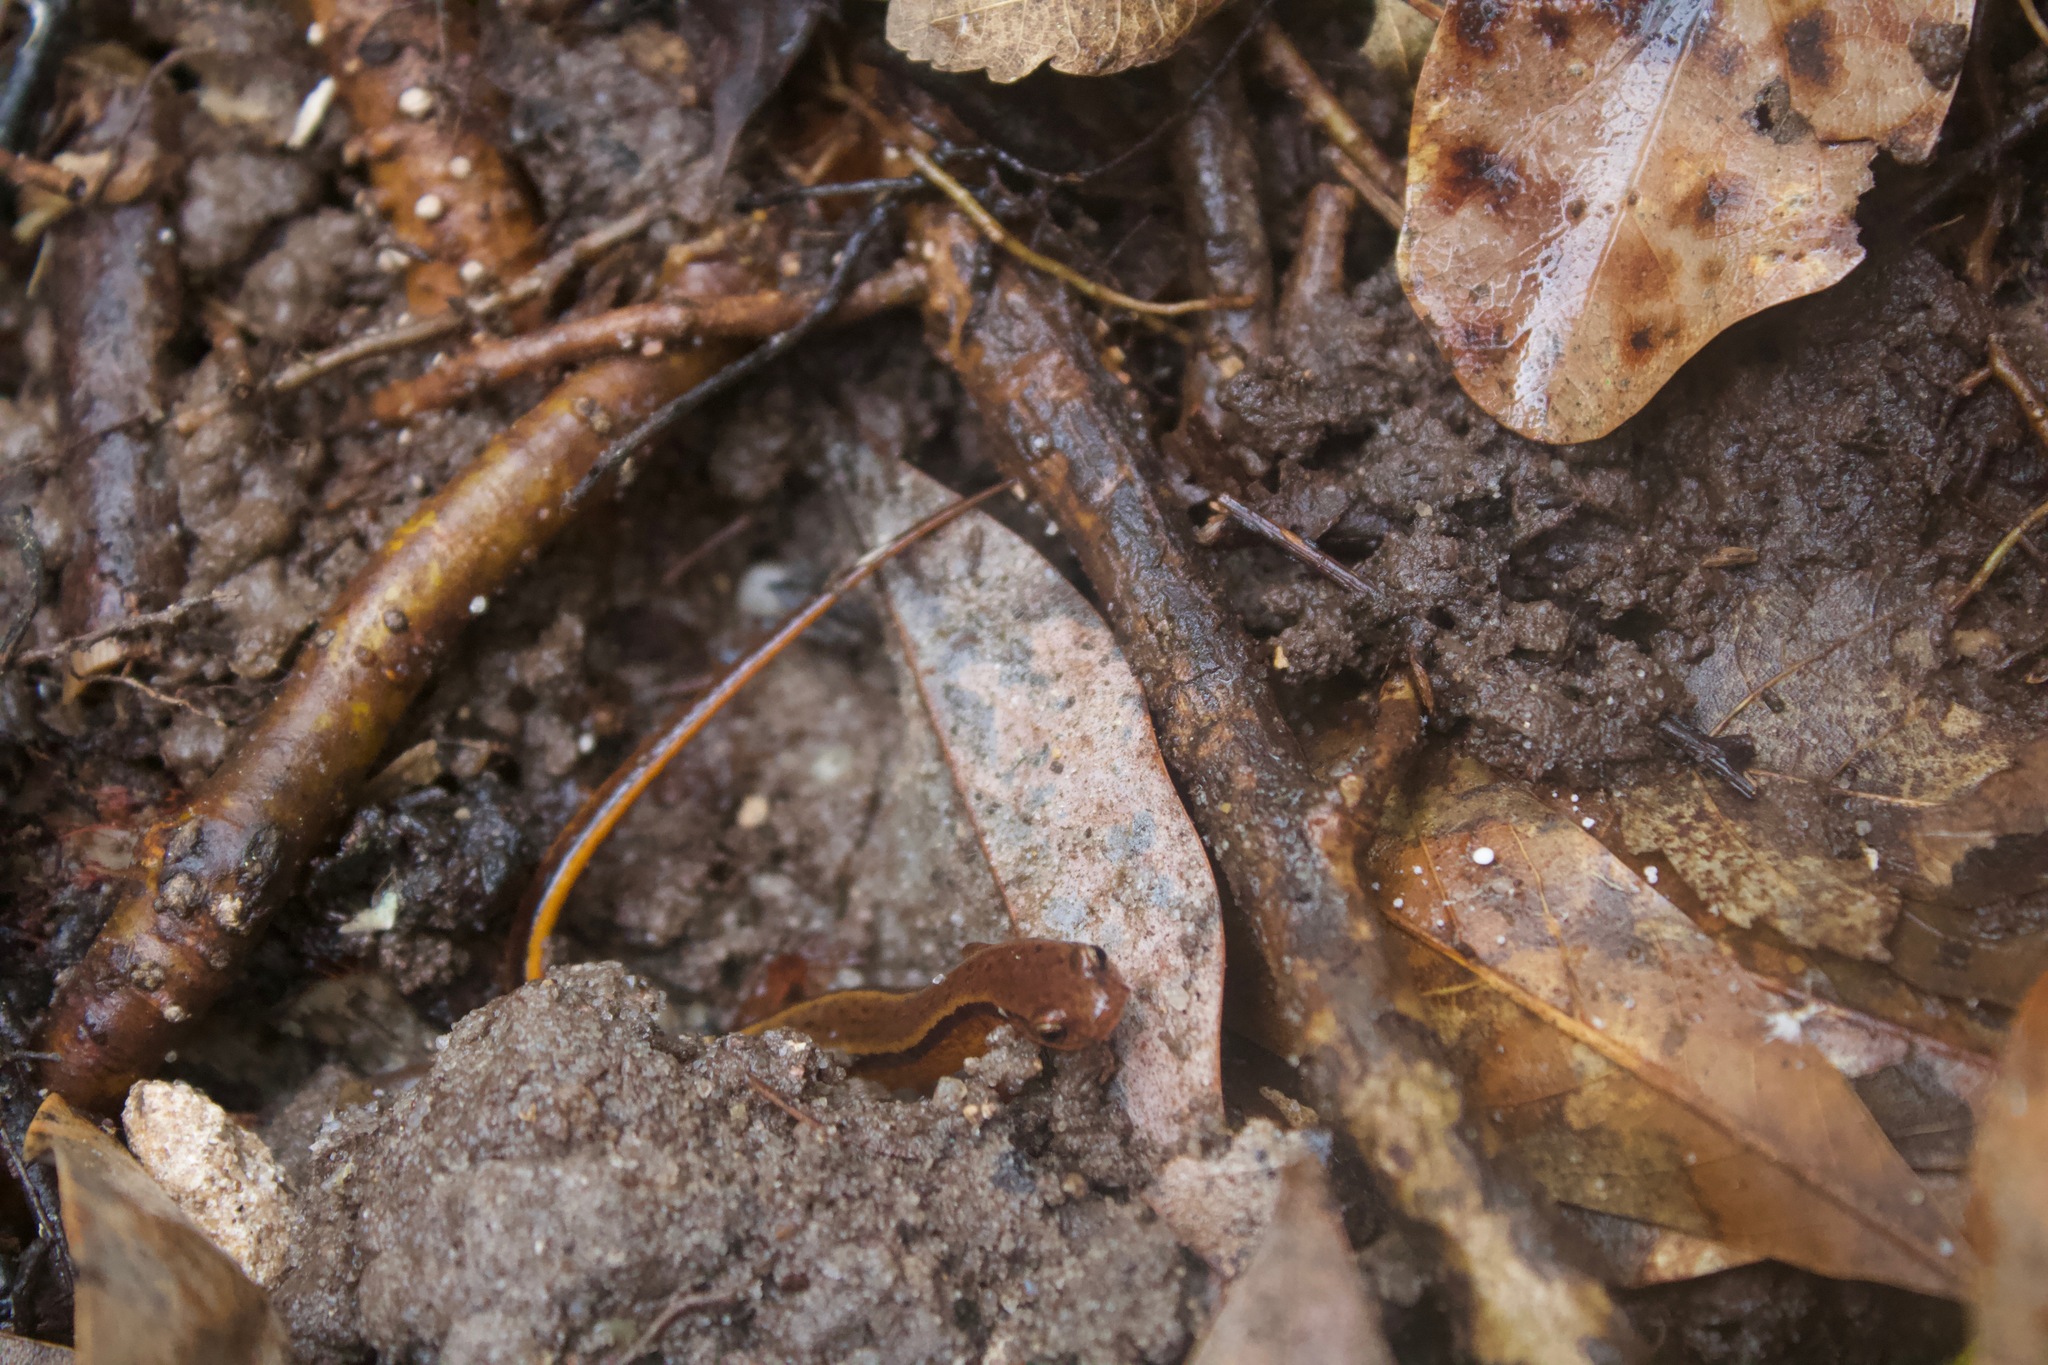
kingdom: Animalia
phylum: Chordata
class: Amphibia
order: Caudata
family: Plethodontidae
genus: Eurycea
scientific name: Eurycea cirrigera
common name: Southern two-lined salamander
